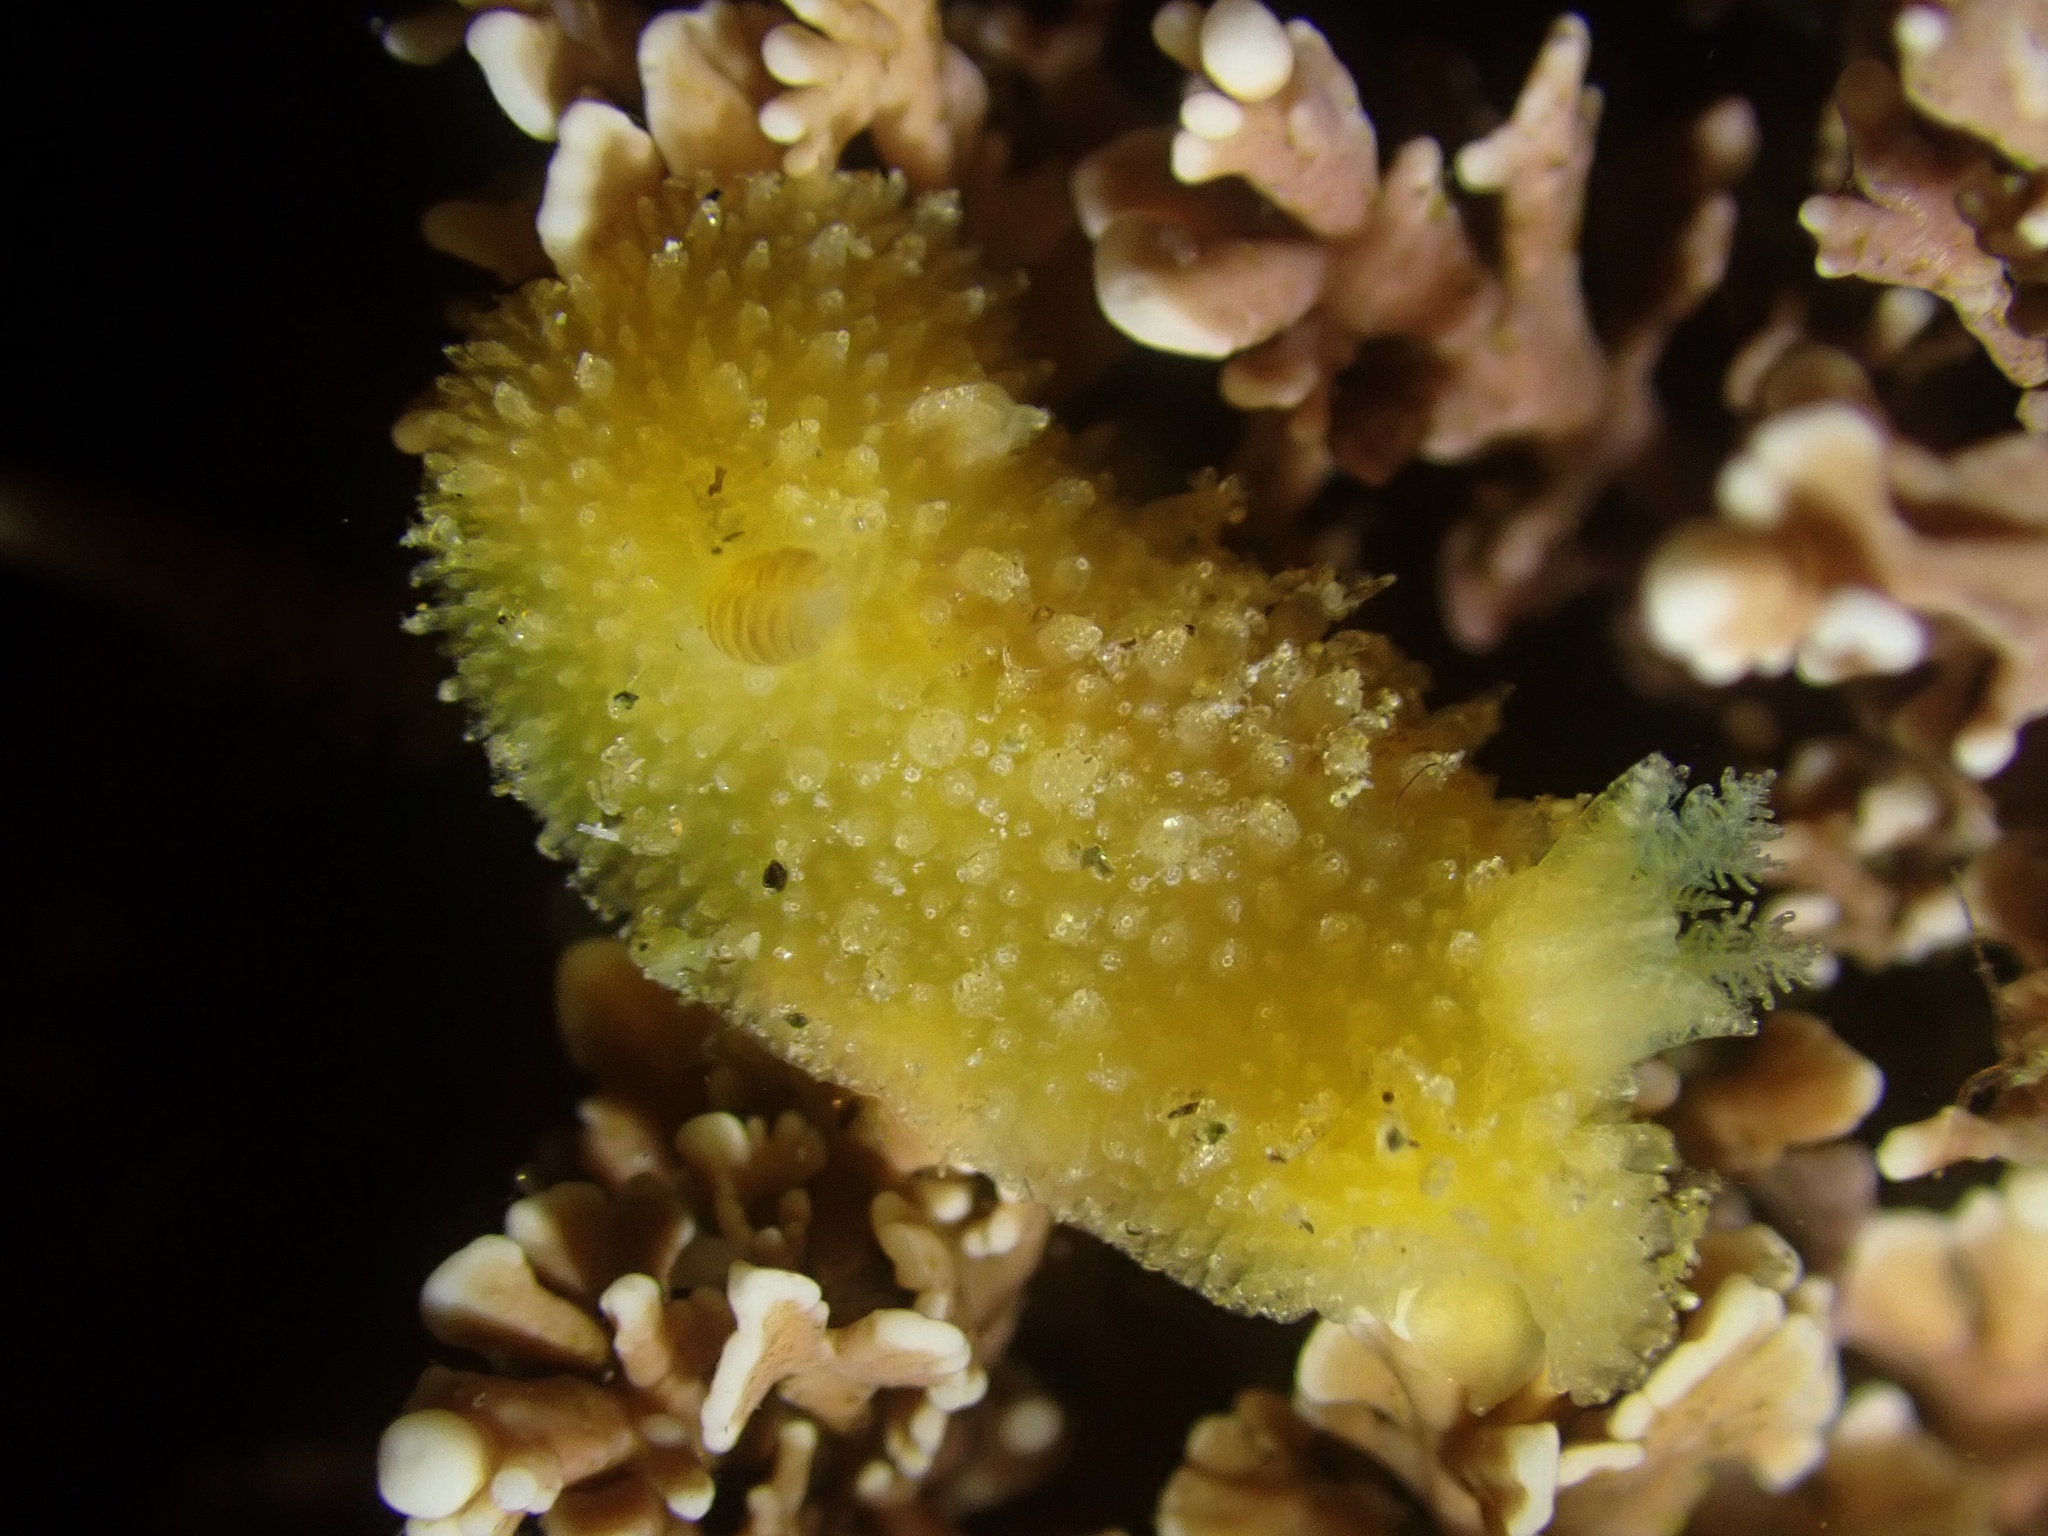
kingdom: Animalia
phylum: Mollusca
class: Gastropoda
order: Nudibranchia
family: Discodorididae
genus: Thordisa
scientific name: Thordisa bimaculata
